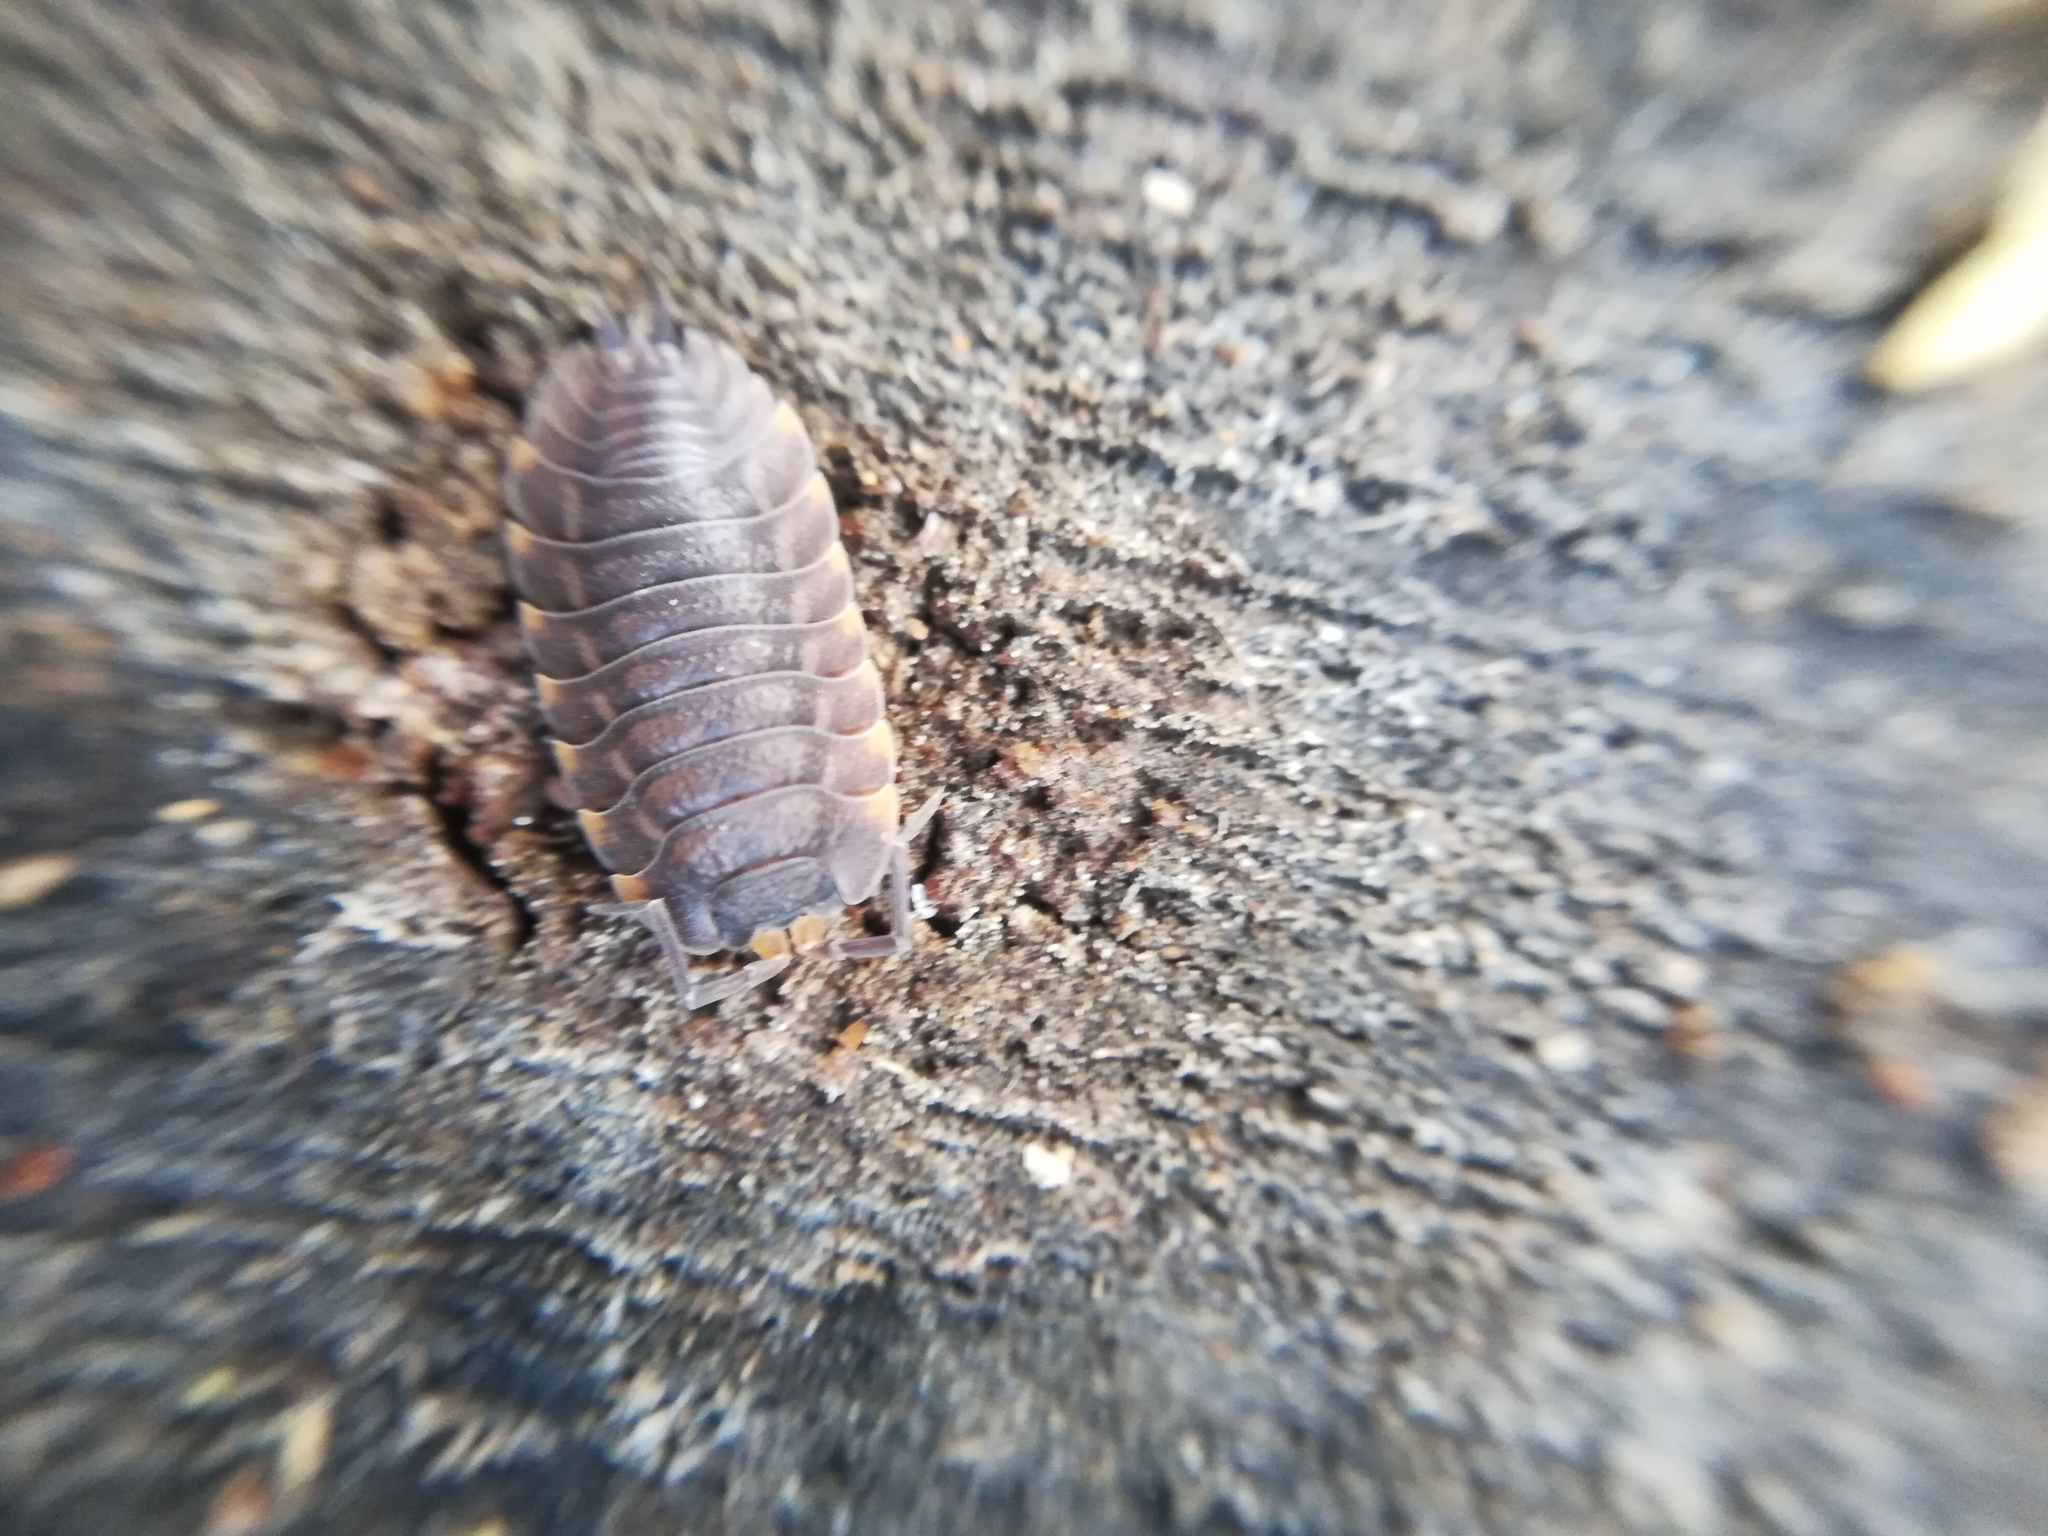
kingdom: Animalia
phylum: Arthropoda
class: Malacostraca
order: Isopoda
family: Trachelipodidae
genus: Trachelipus
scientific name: Trachelipus ratzeburgii
